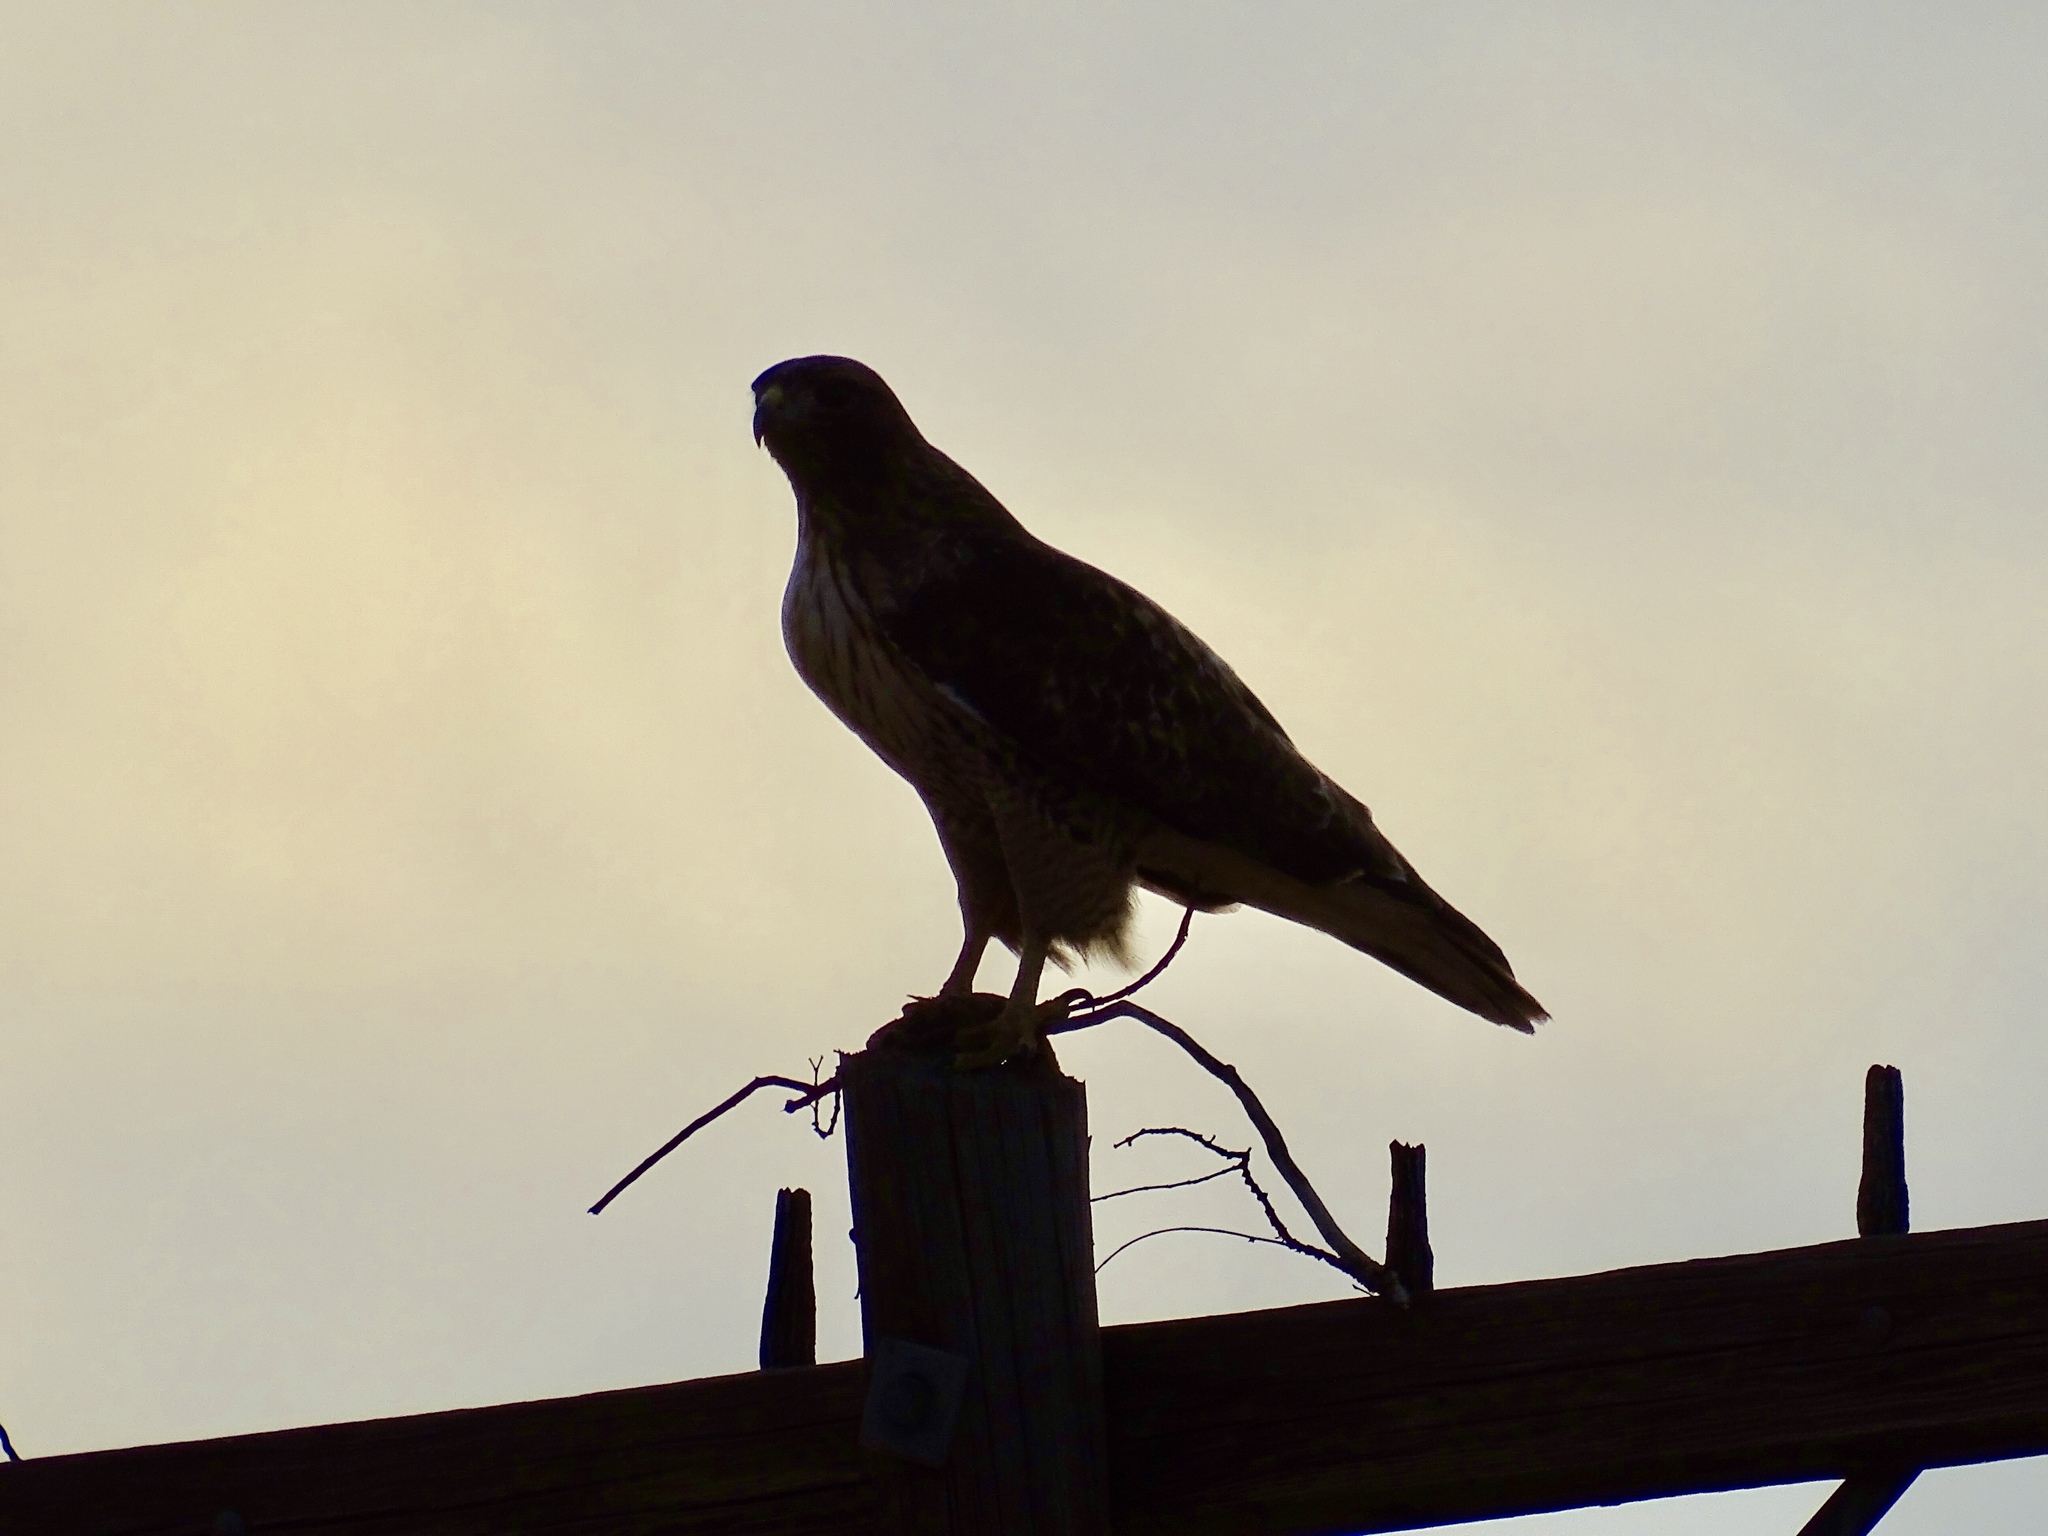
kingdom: Animalia
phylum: Chordata
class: Aves
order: Accipitriformes
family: Accipitridae
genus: Buteo
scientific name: Buteo jamaicensis
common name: Red-tailed hawk
